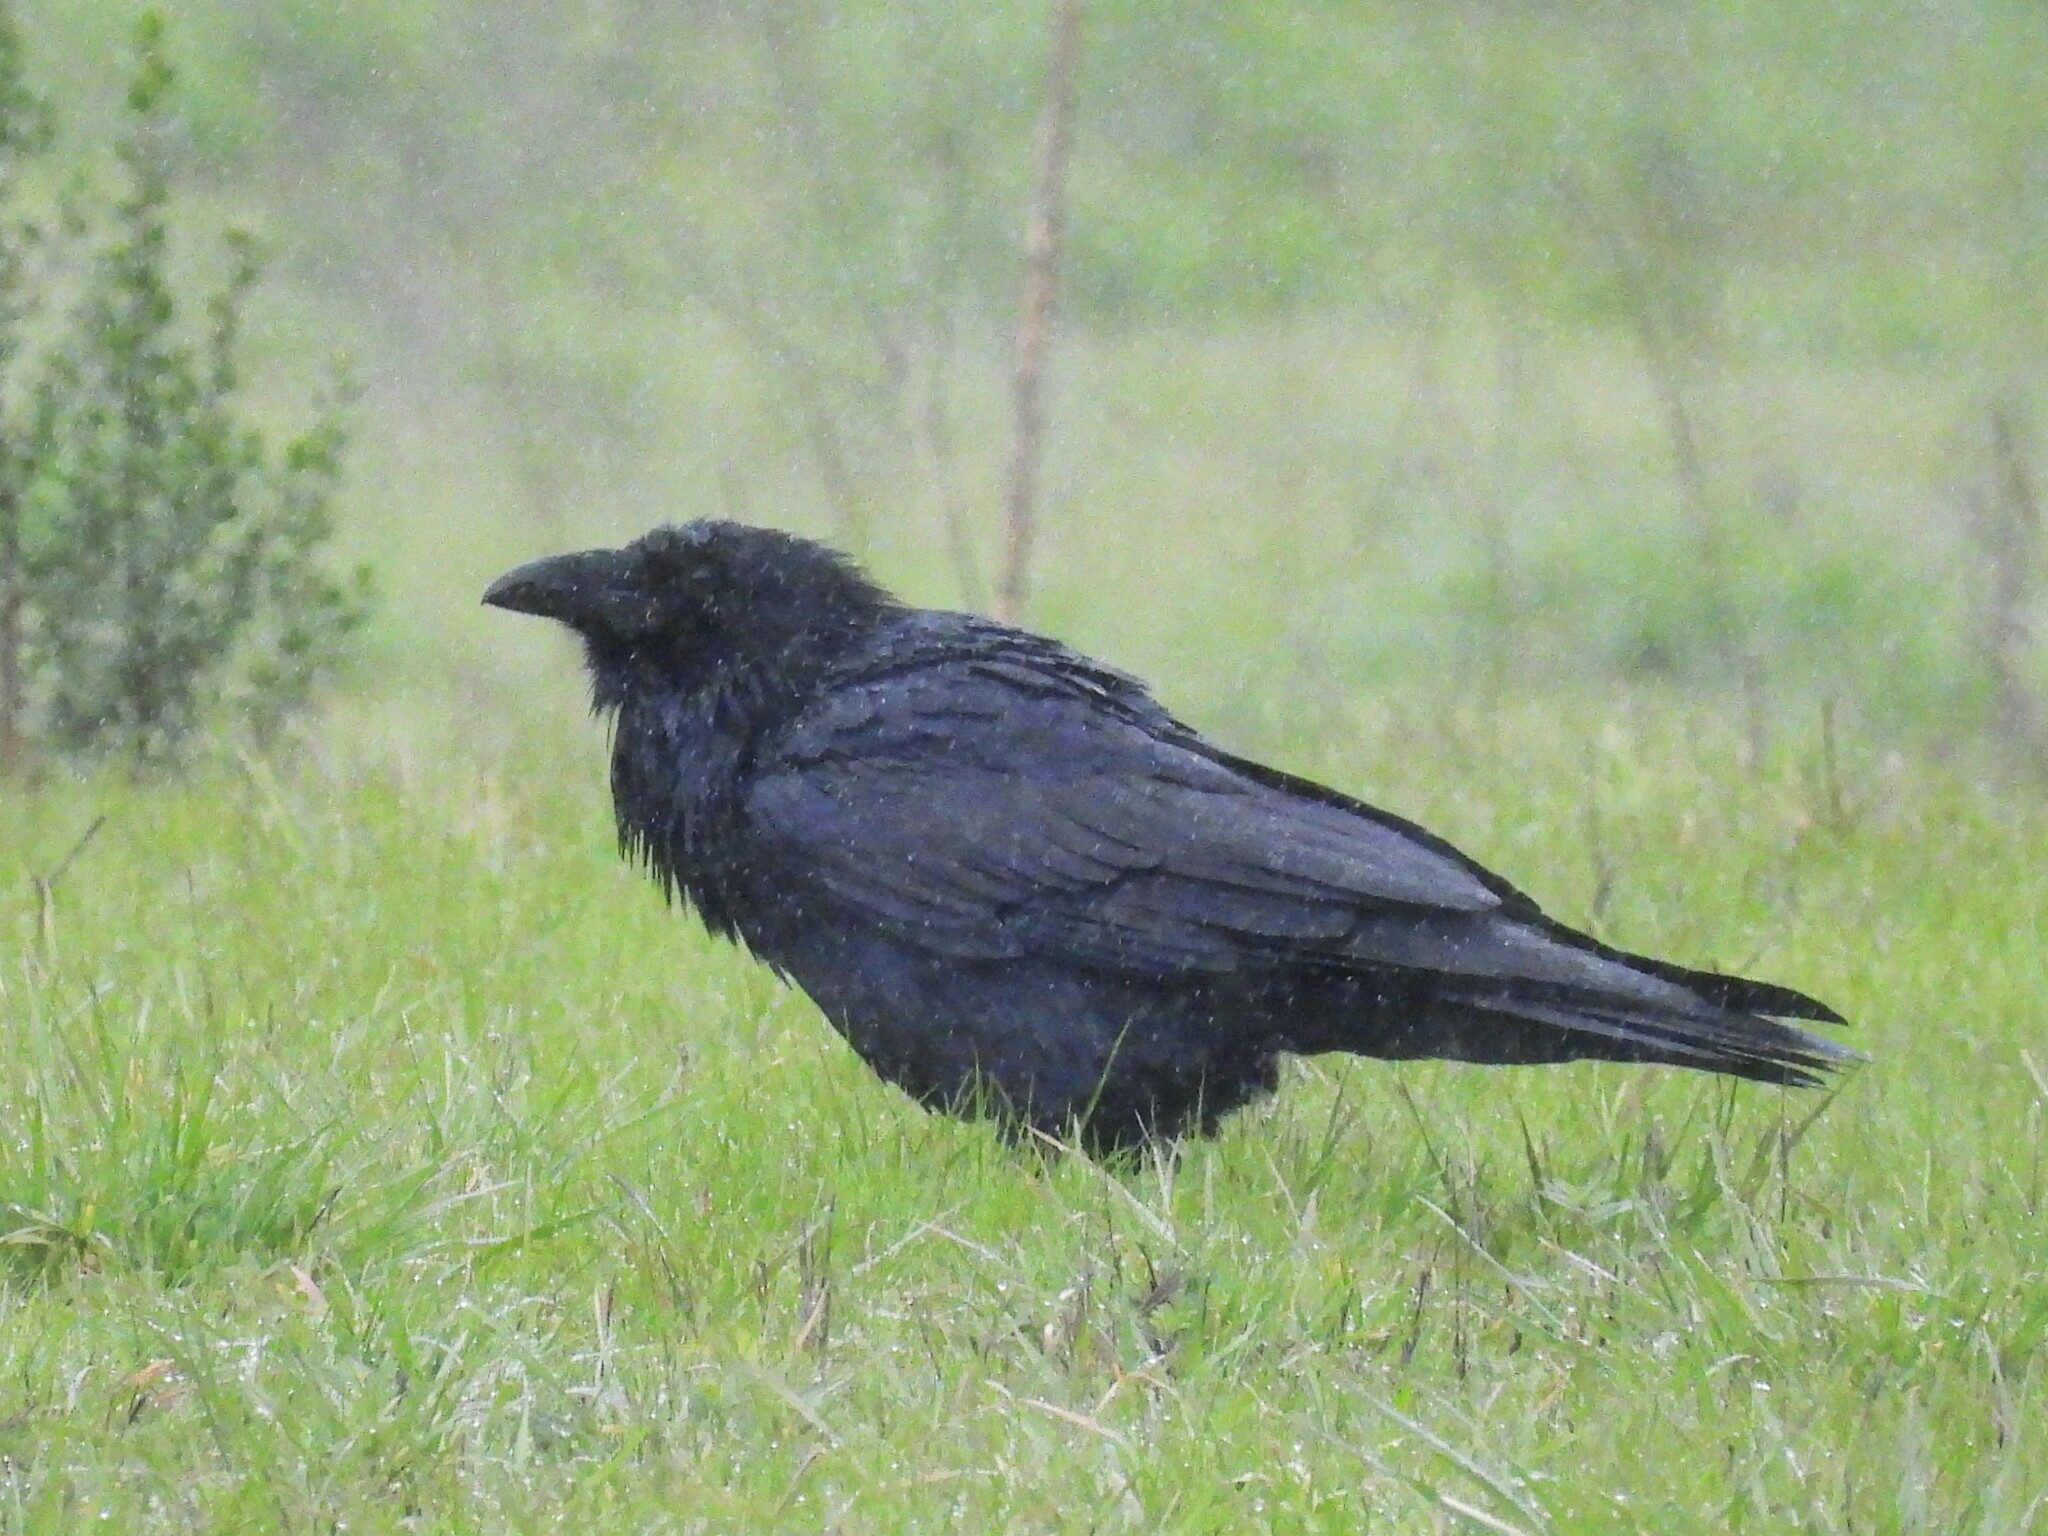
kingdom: Animalia
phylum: Chordata
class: Aves
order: Passeriformes
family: Corvidae
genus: Corvus
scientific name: Corvus corax
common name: Common raven
